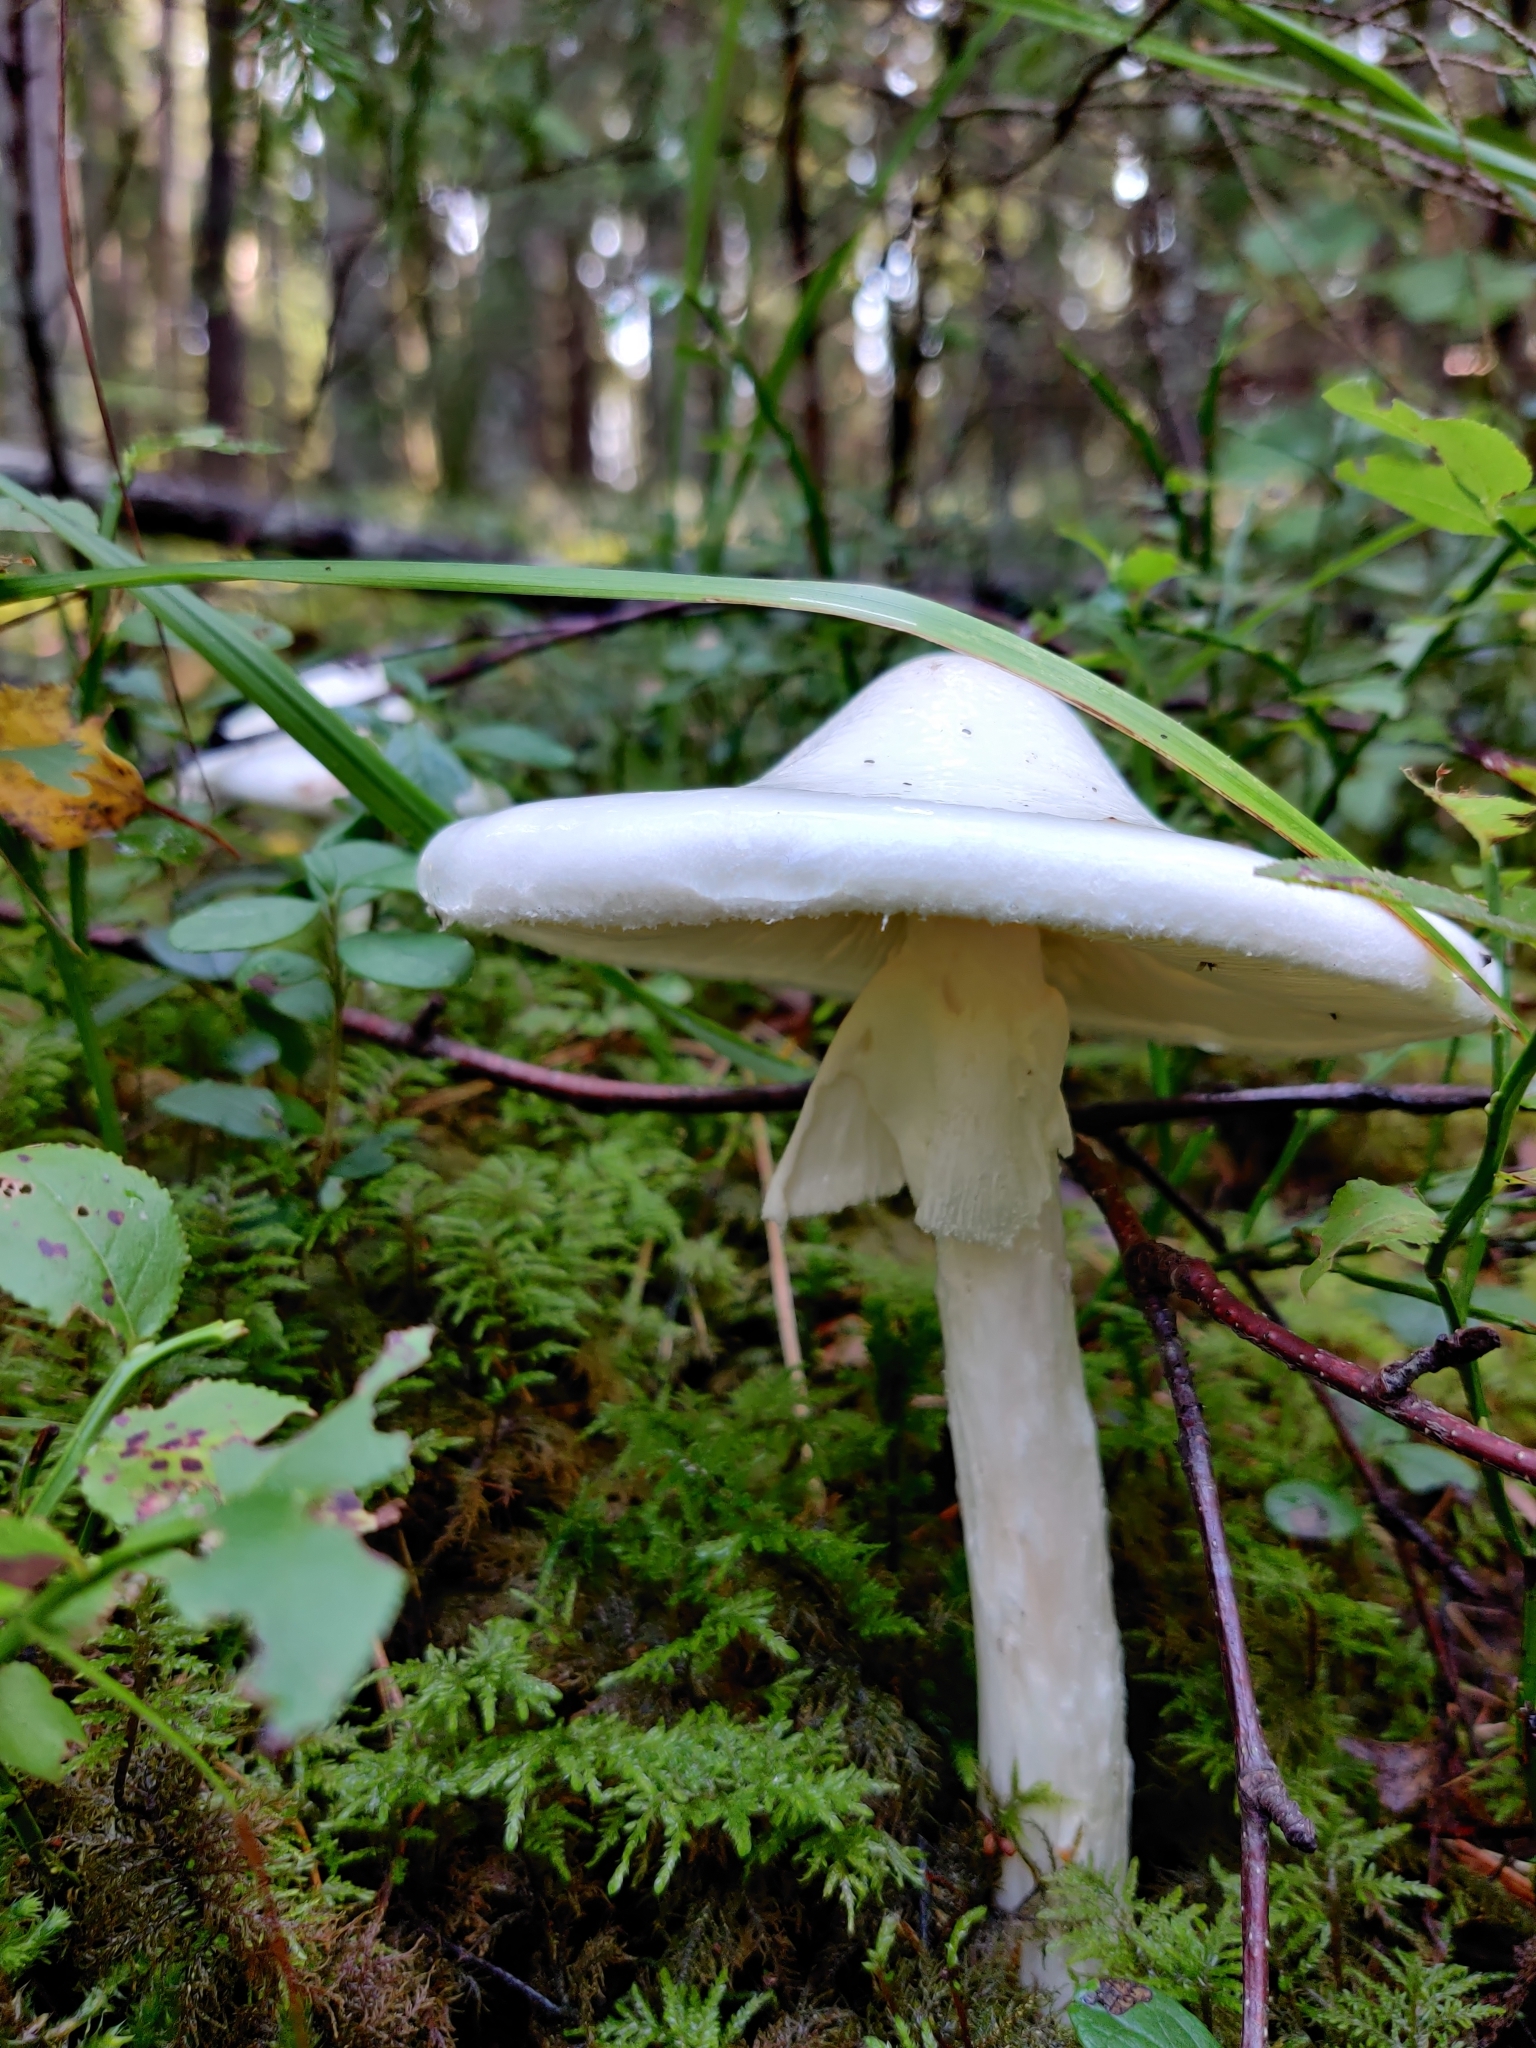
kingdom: Fungi
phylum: Basidiomycota
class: Agaricomycetes
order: Agaricales
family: Amanitaceae
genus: Amanita
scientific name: Amanita virosa
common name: Destroying angel
